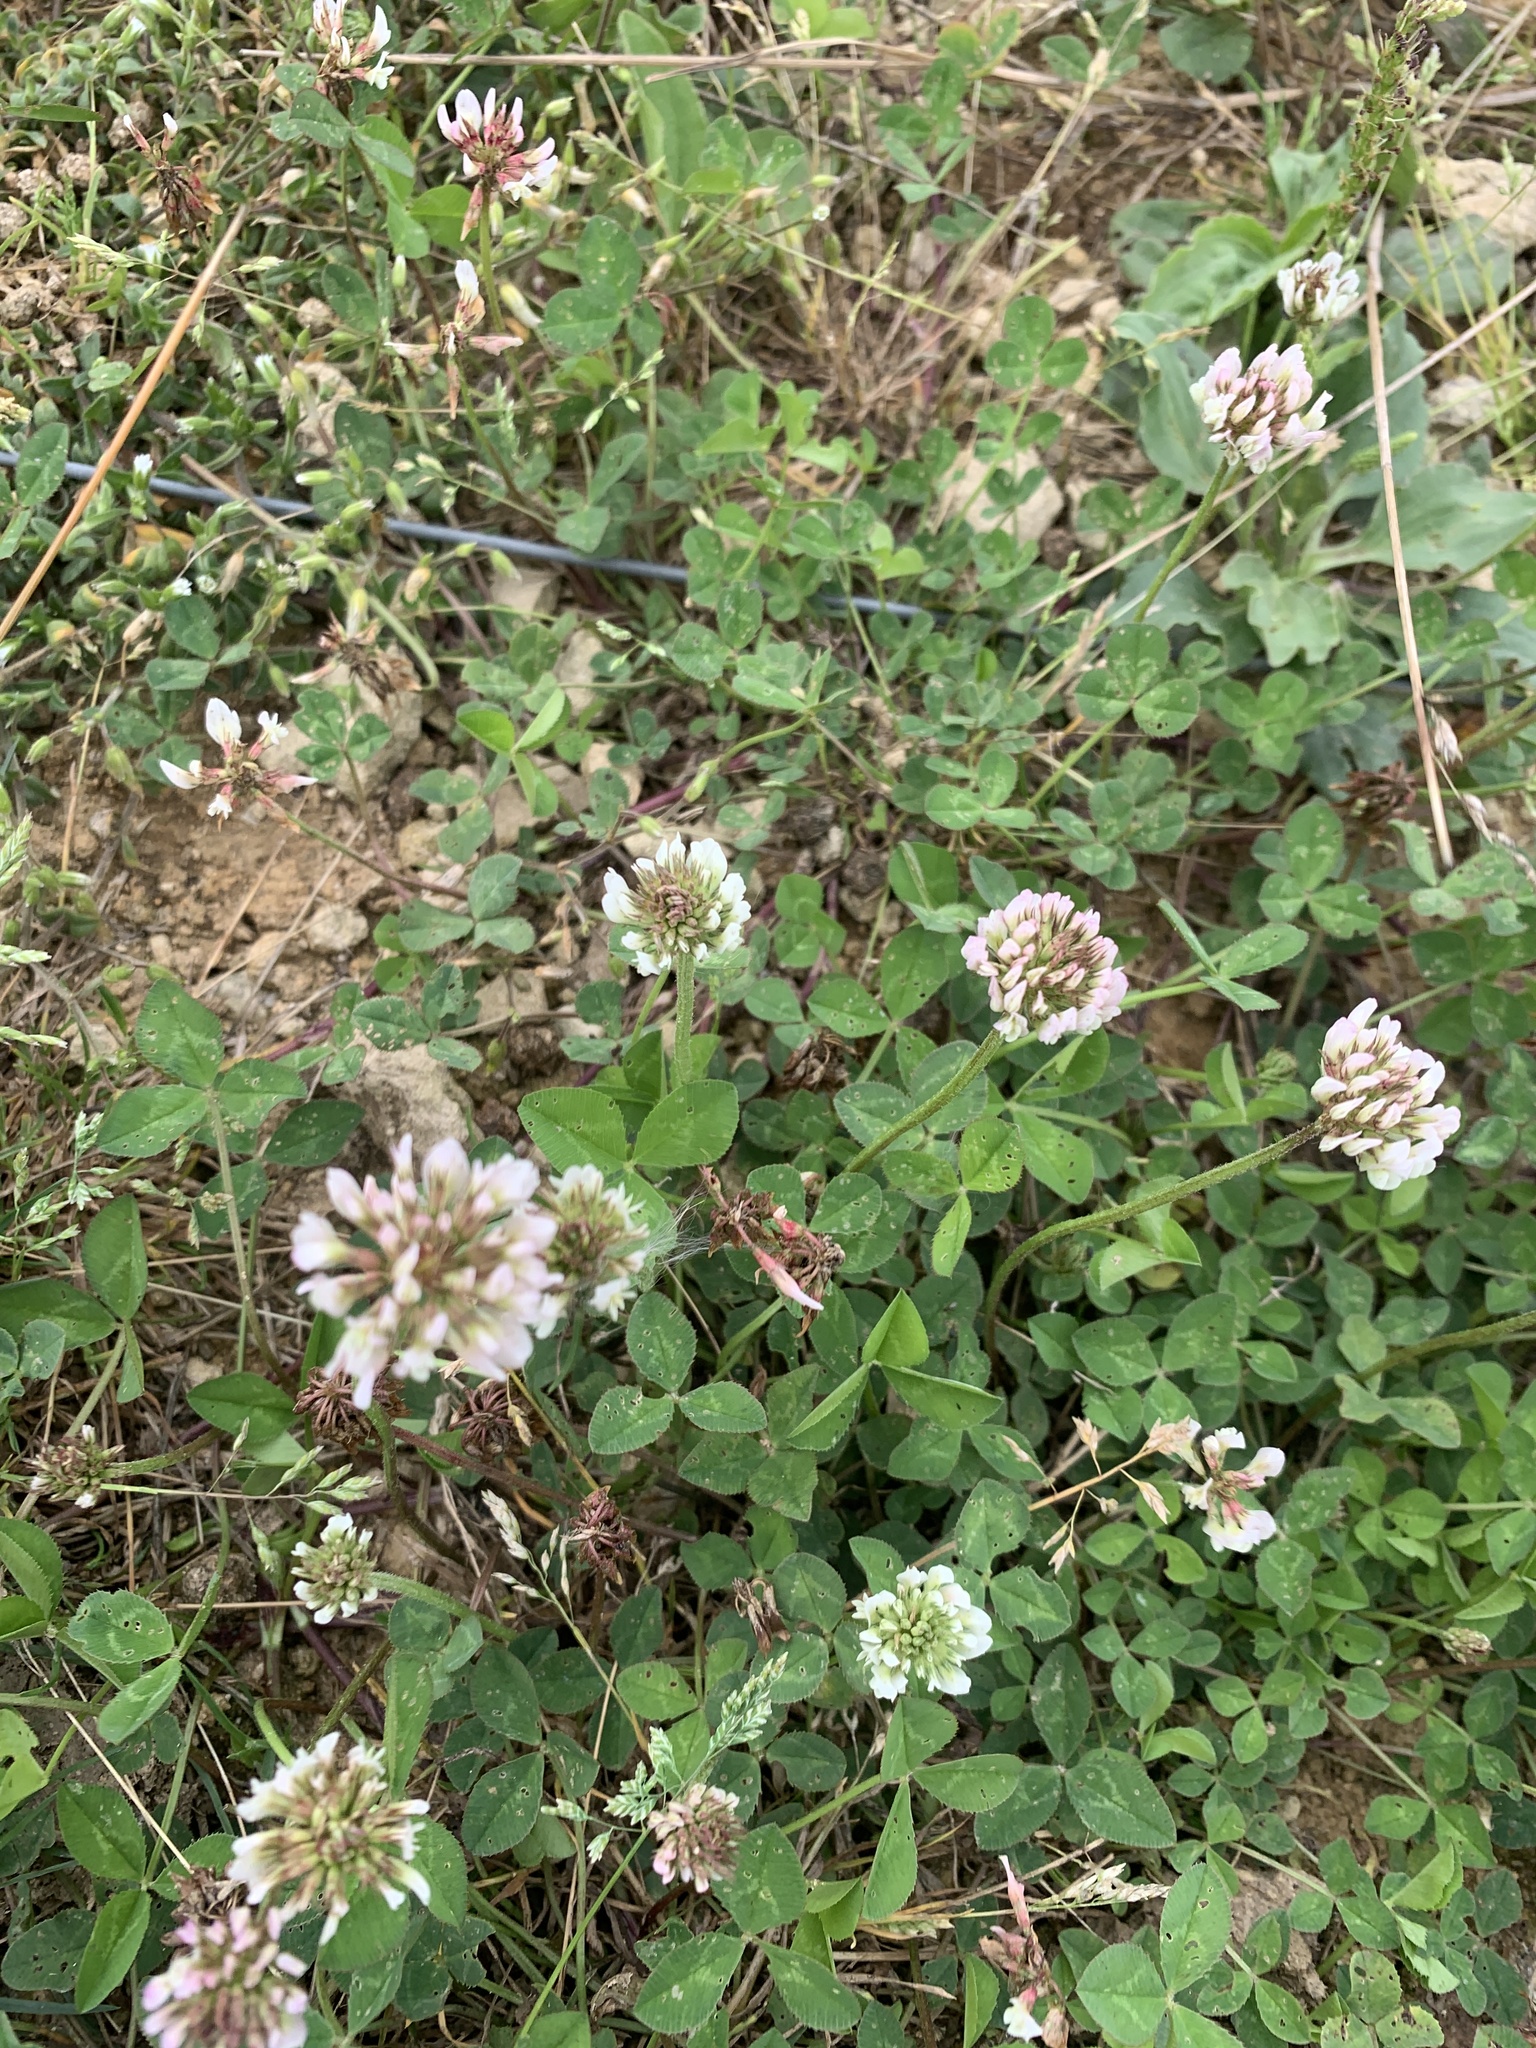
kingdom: Plantae
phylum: Tracheophyta
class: Magnoliopsida
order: Fabales
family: Fabaceae
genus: Trifolium
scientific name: Trifolium repens
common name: White clover
